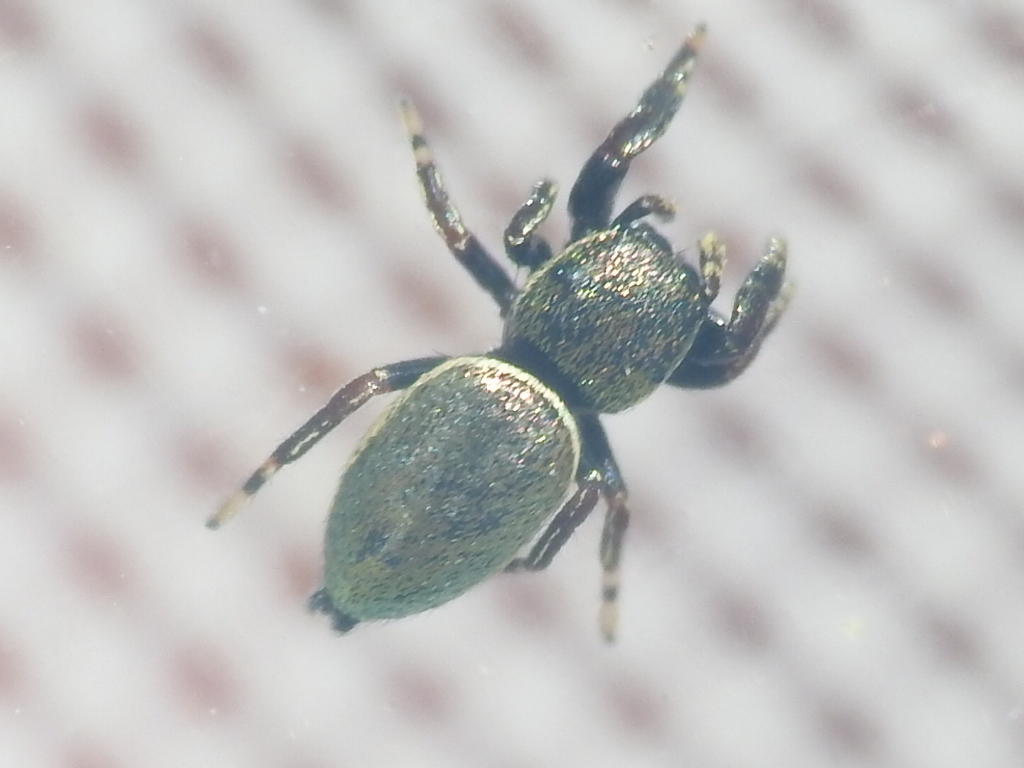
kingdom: Animalia
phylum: Arthropoda
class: Arachnida
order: Araneae
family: Salticidae
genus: Sassacus
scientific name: Sassacus papenhoei
